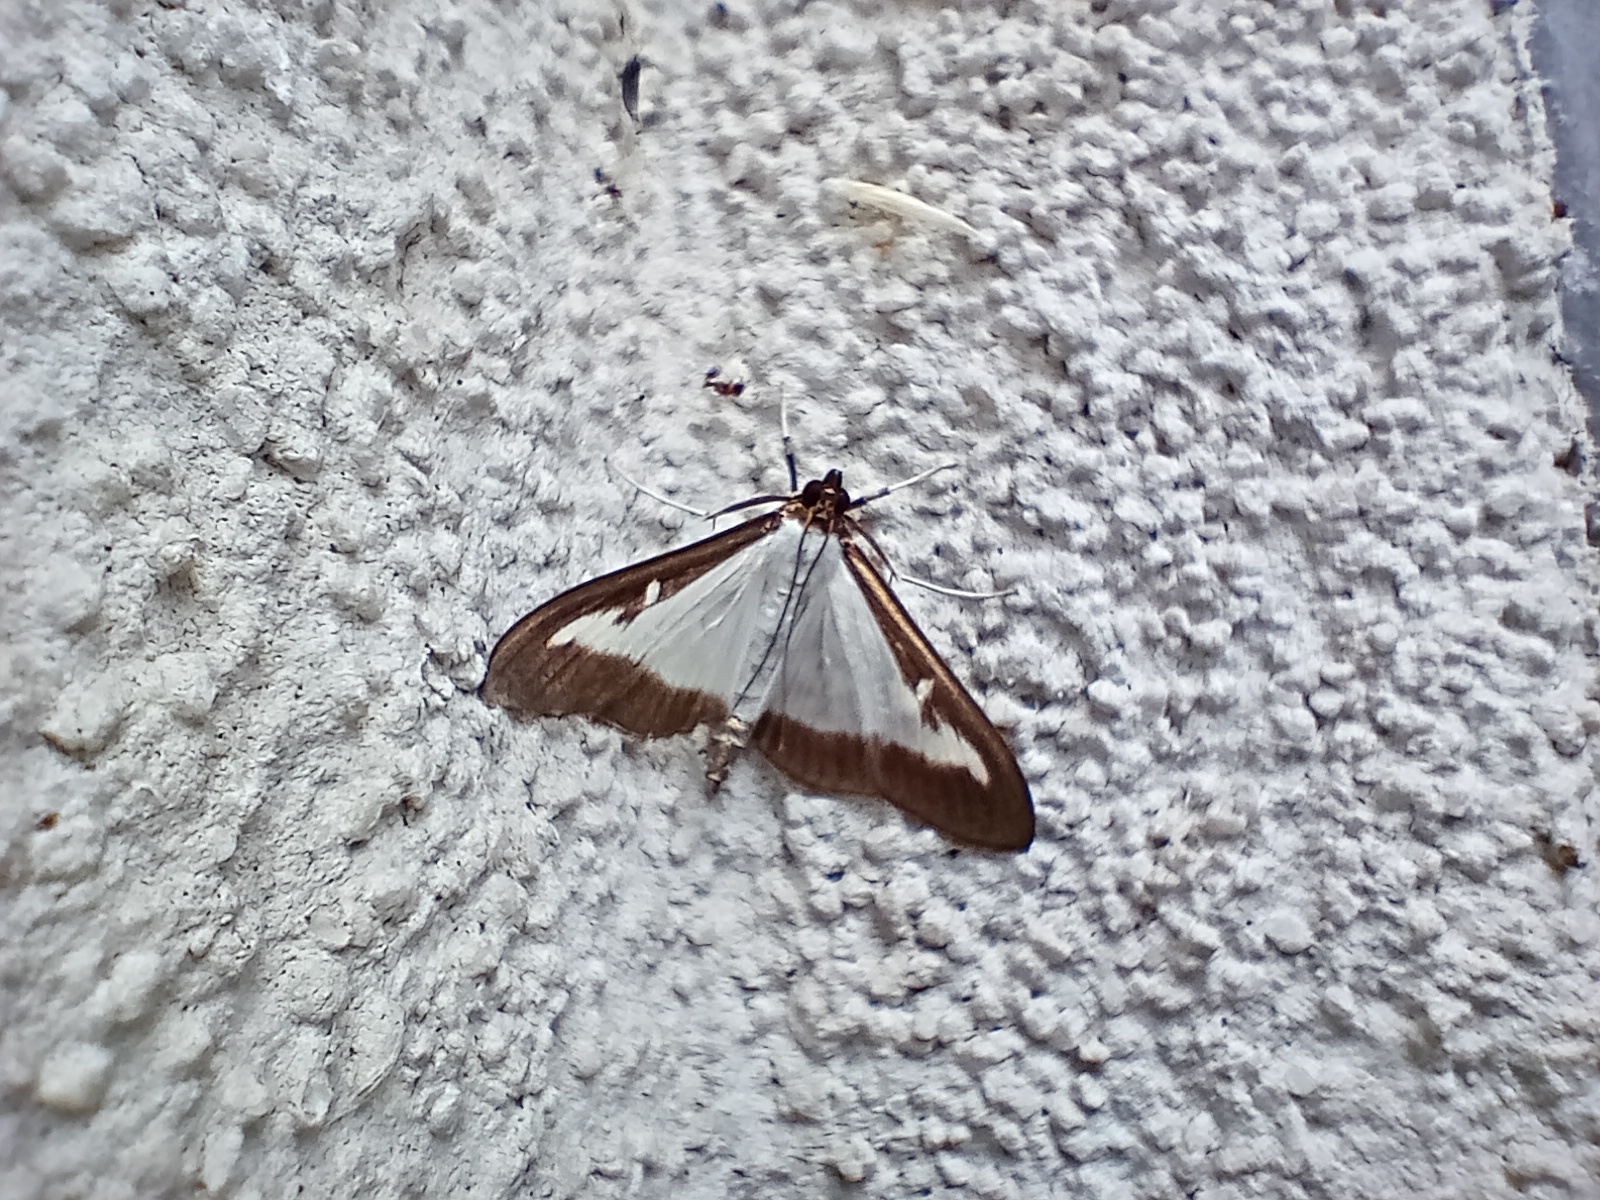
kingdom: Animalia
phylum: Arthropoda
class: Insecta
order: Lepidoptera
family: Crambidae
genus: Cydalima
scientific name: Cydalima perspectalis
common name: Box tree moth
